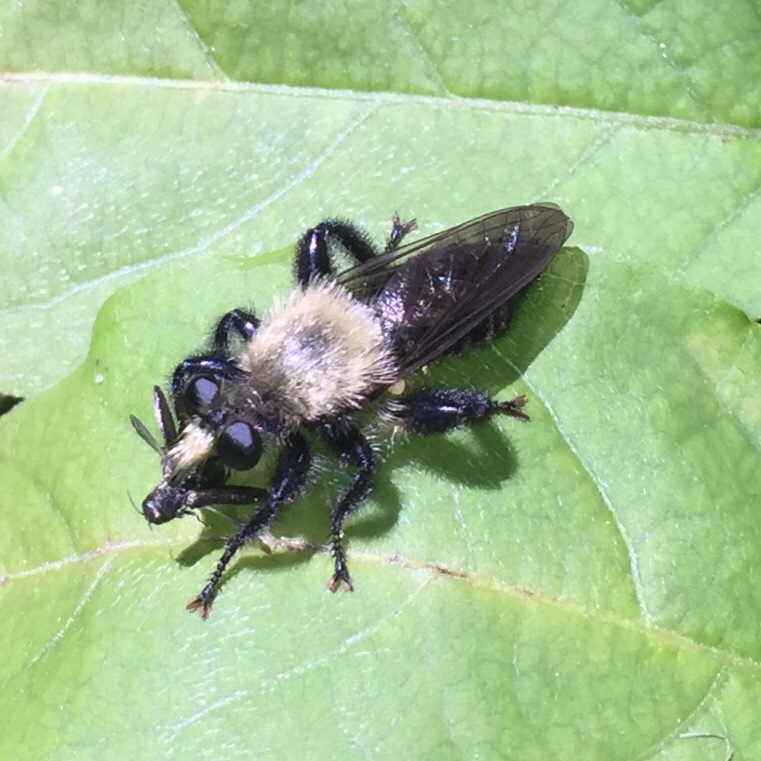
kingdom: Animalia
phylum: Arthropoda
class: Insecta
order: Diptera
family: Asilidae
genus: Laphria
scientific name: Laphria flavicollis
